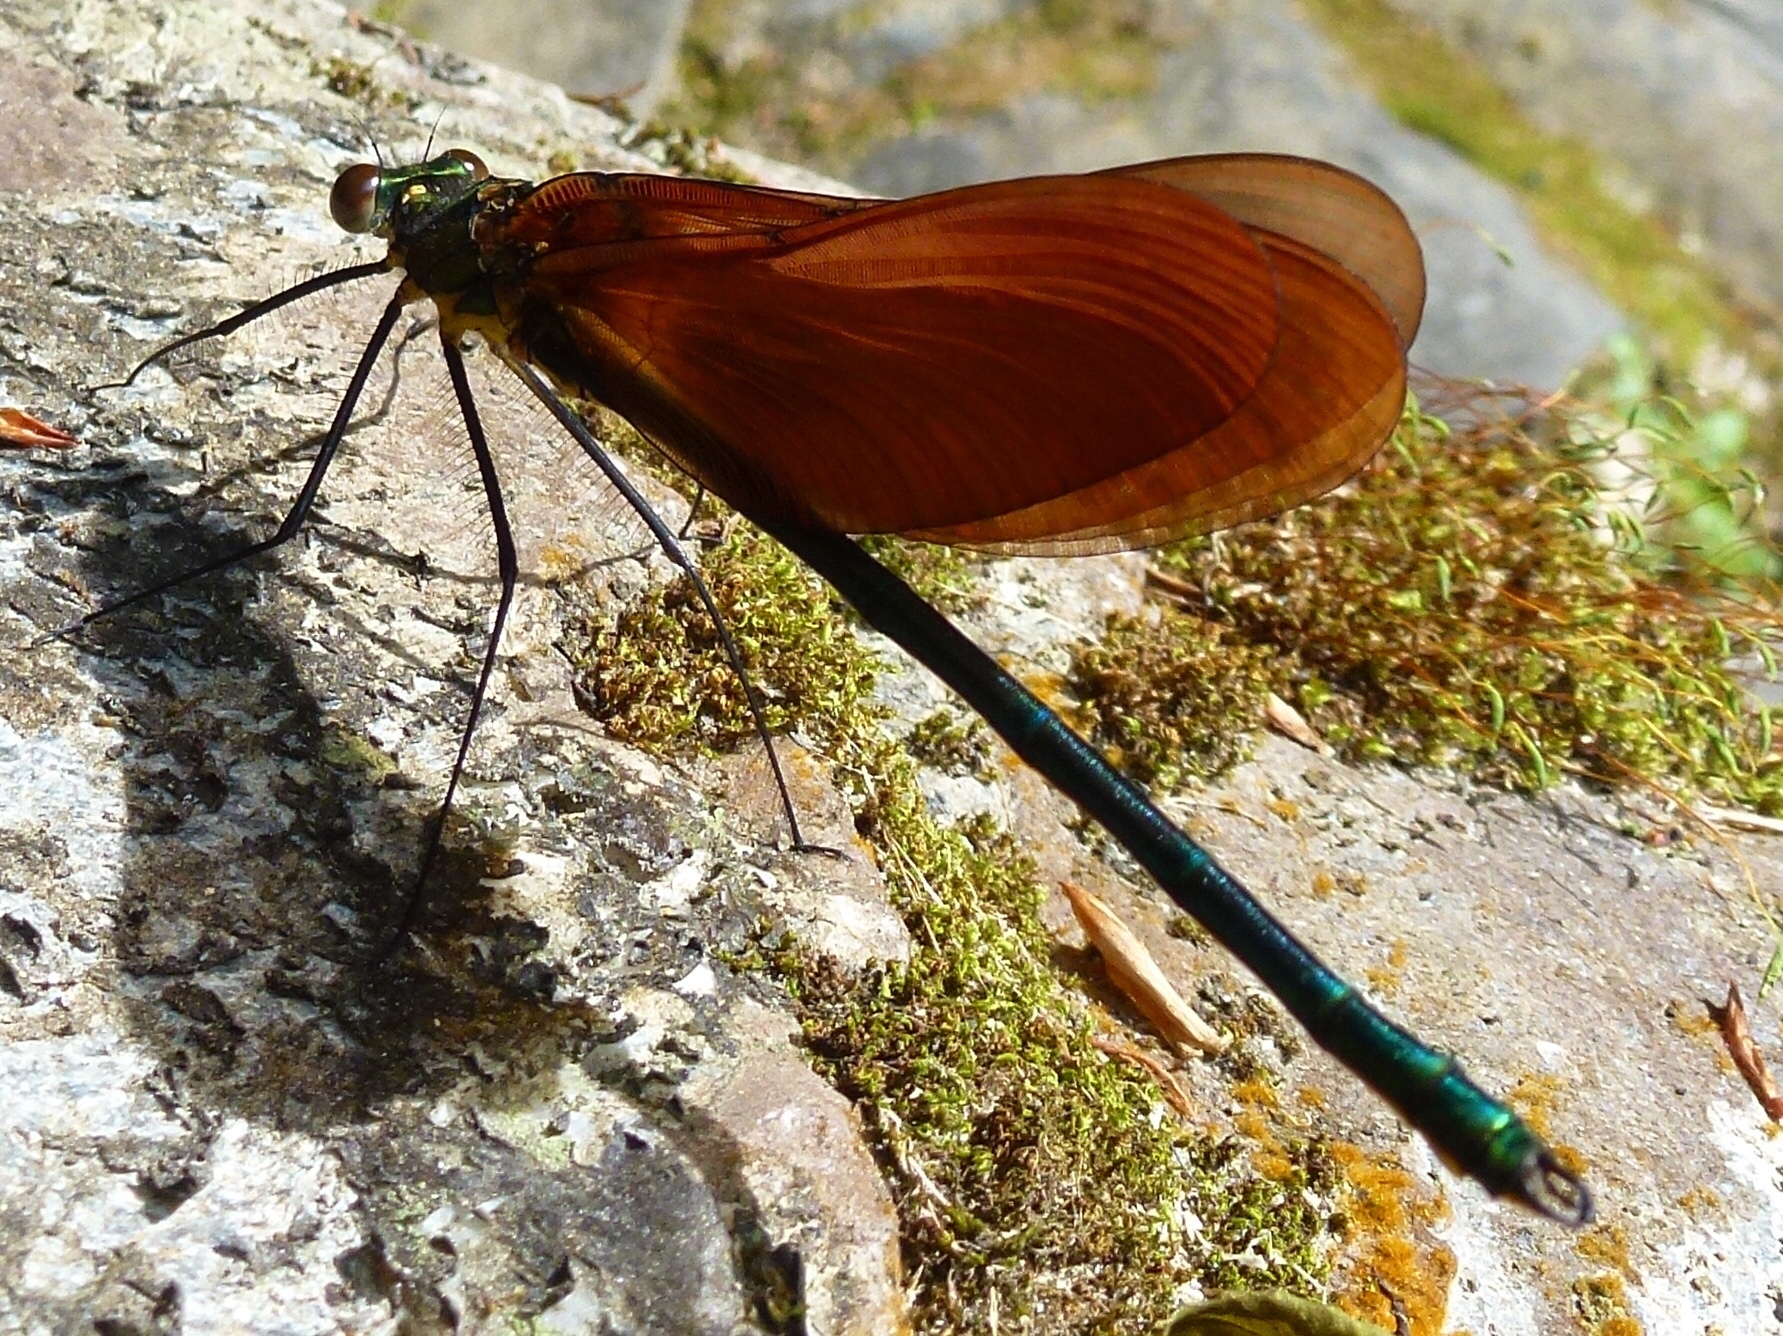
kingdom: Animalia
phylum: Arthropoda
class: Insecta
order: Odonata
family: Calopterygidae
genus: Calopteryx
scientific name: Calopteryx cornelia
